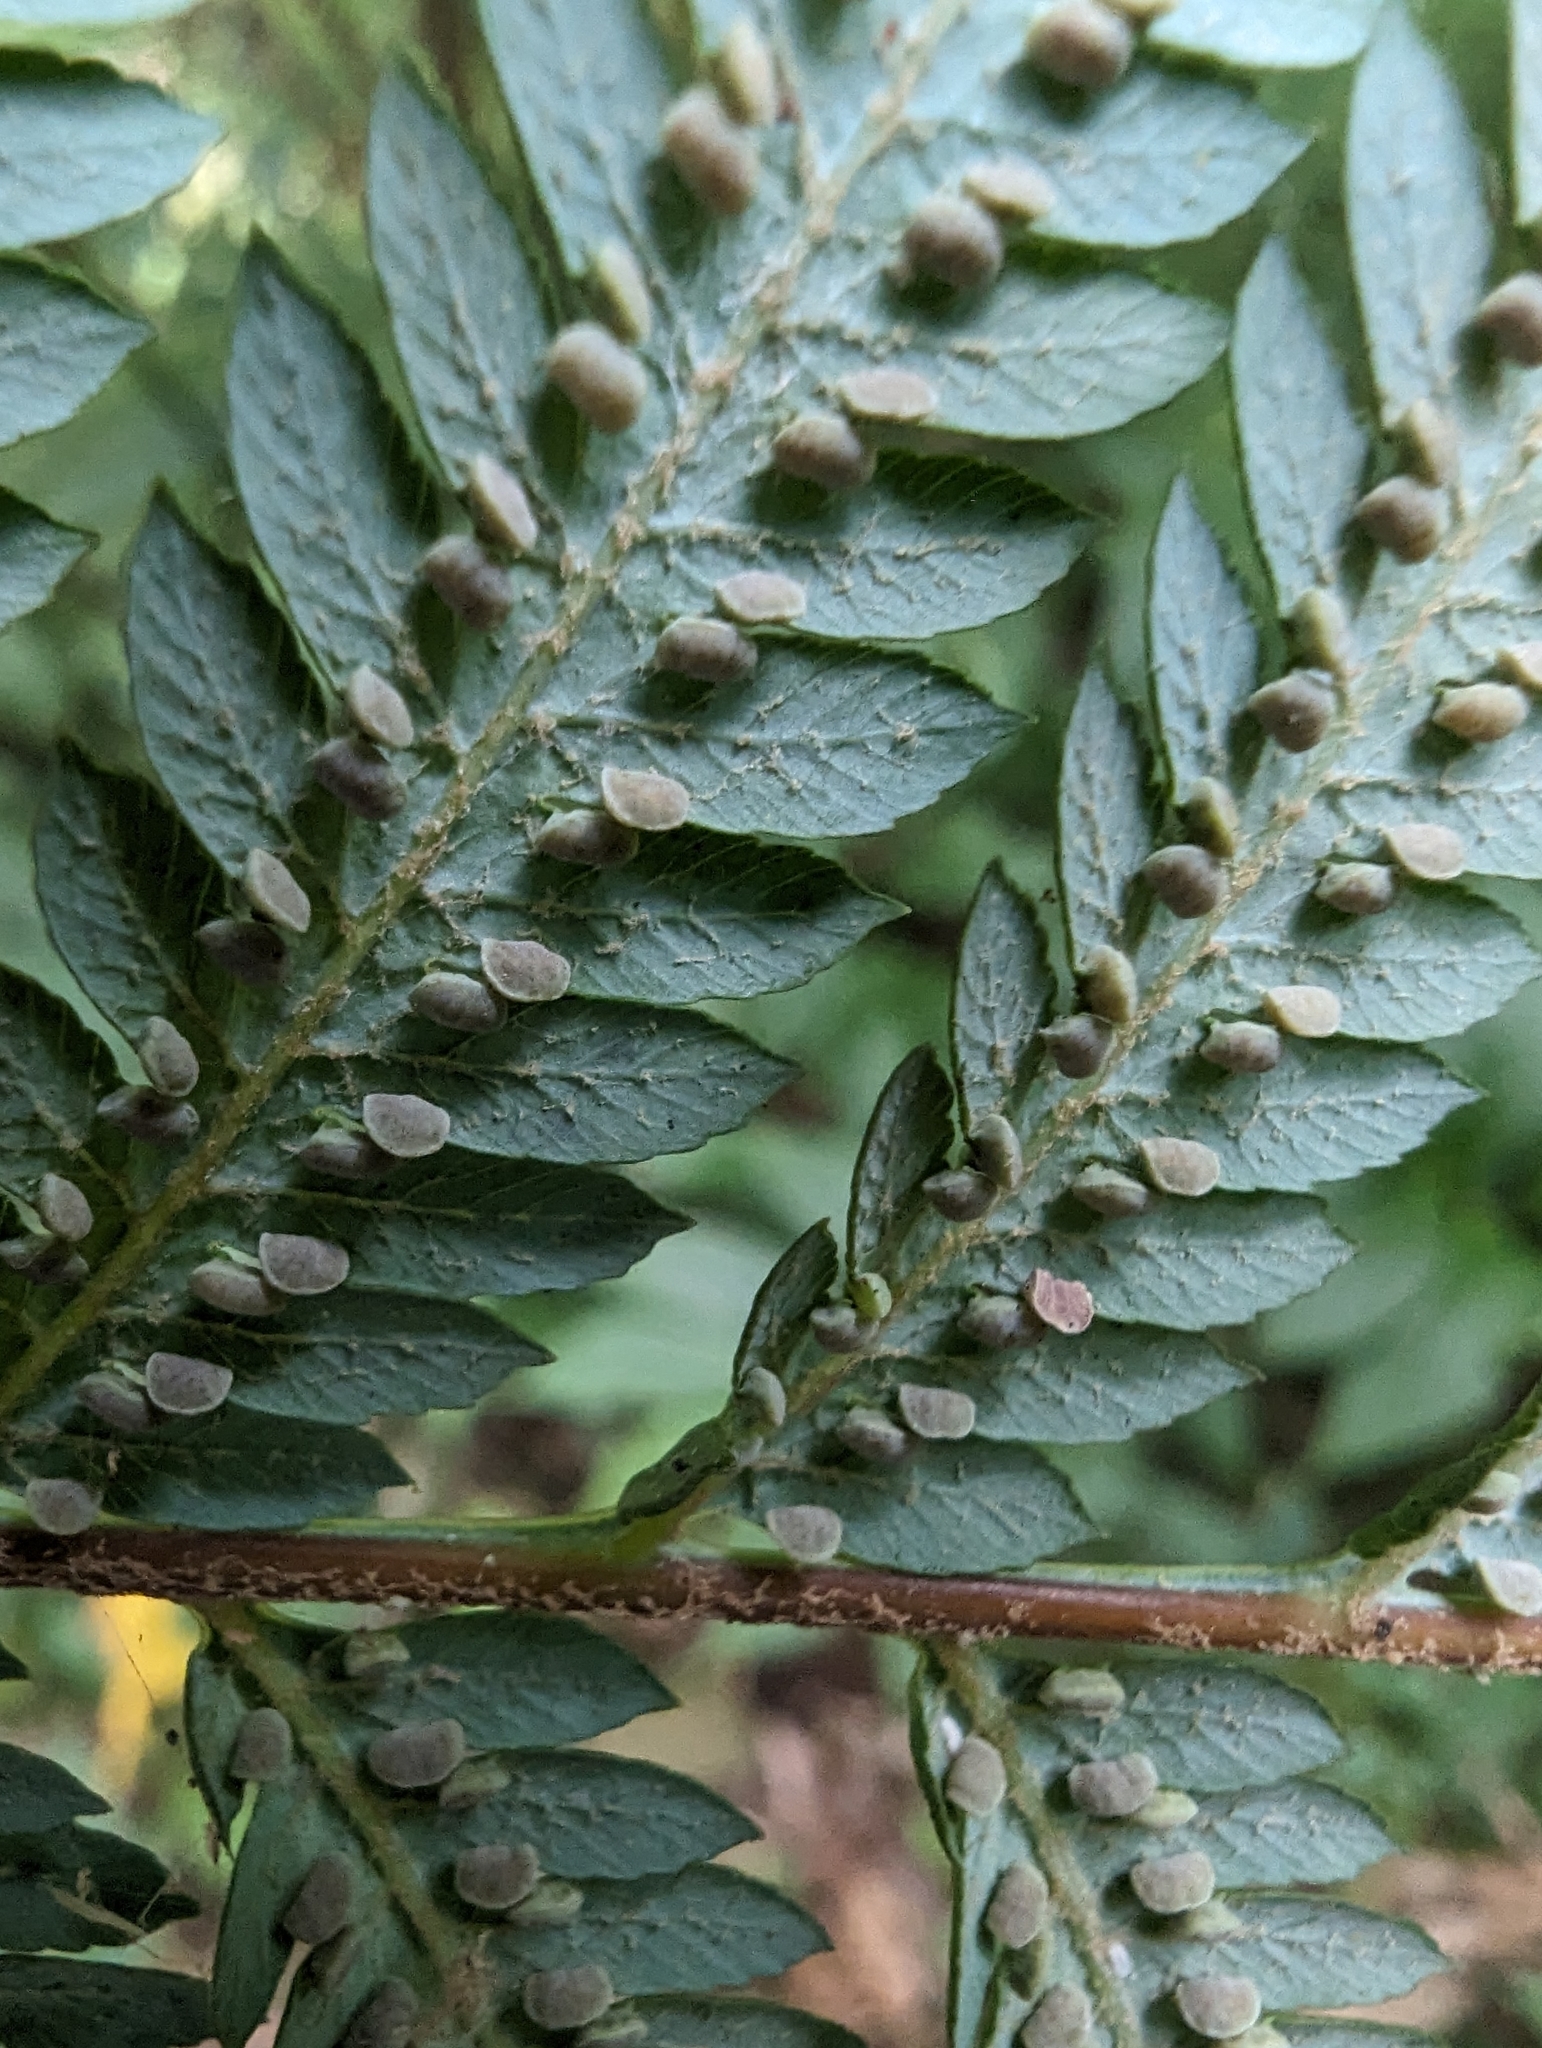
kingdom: Plantae
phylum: Tracheophyta
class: Polypodiopsida
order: Cyatheales
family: Cibotiaceae
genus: Cibotium
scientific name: Cibotium taiwanense
